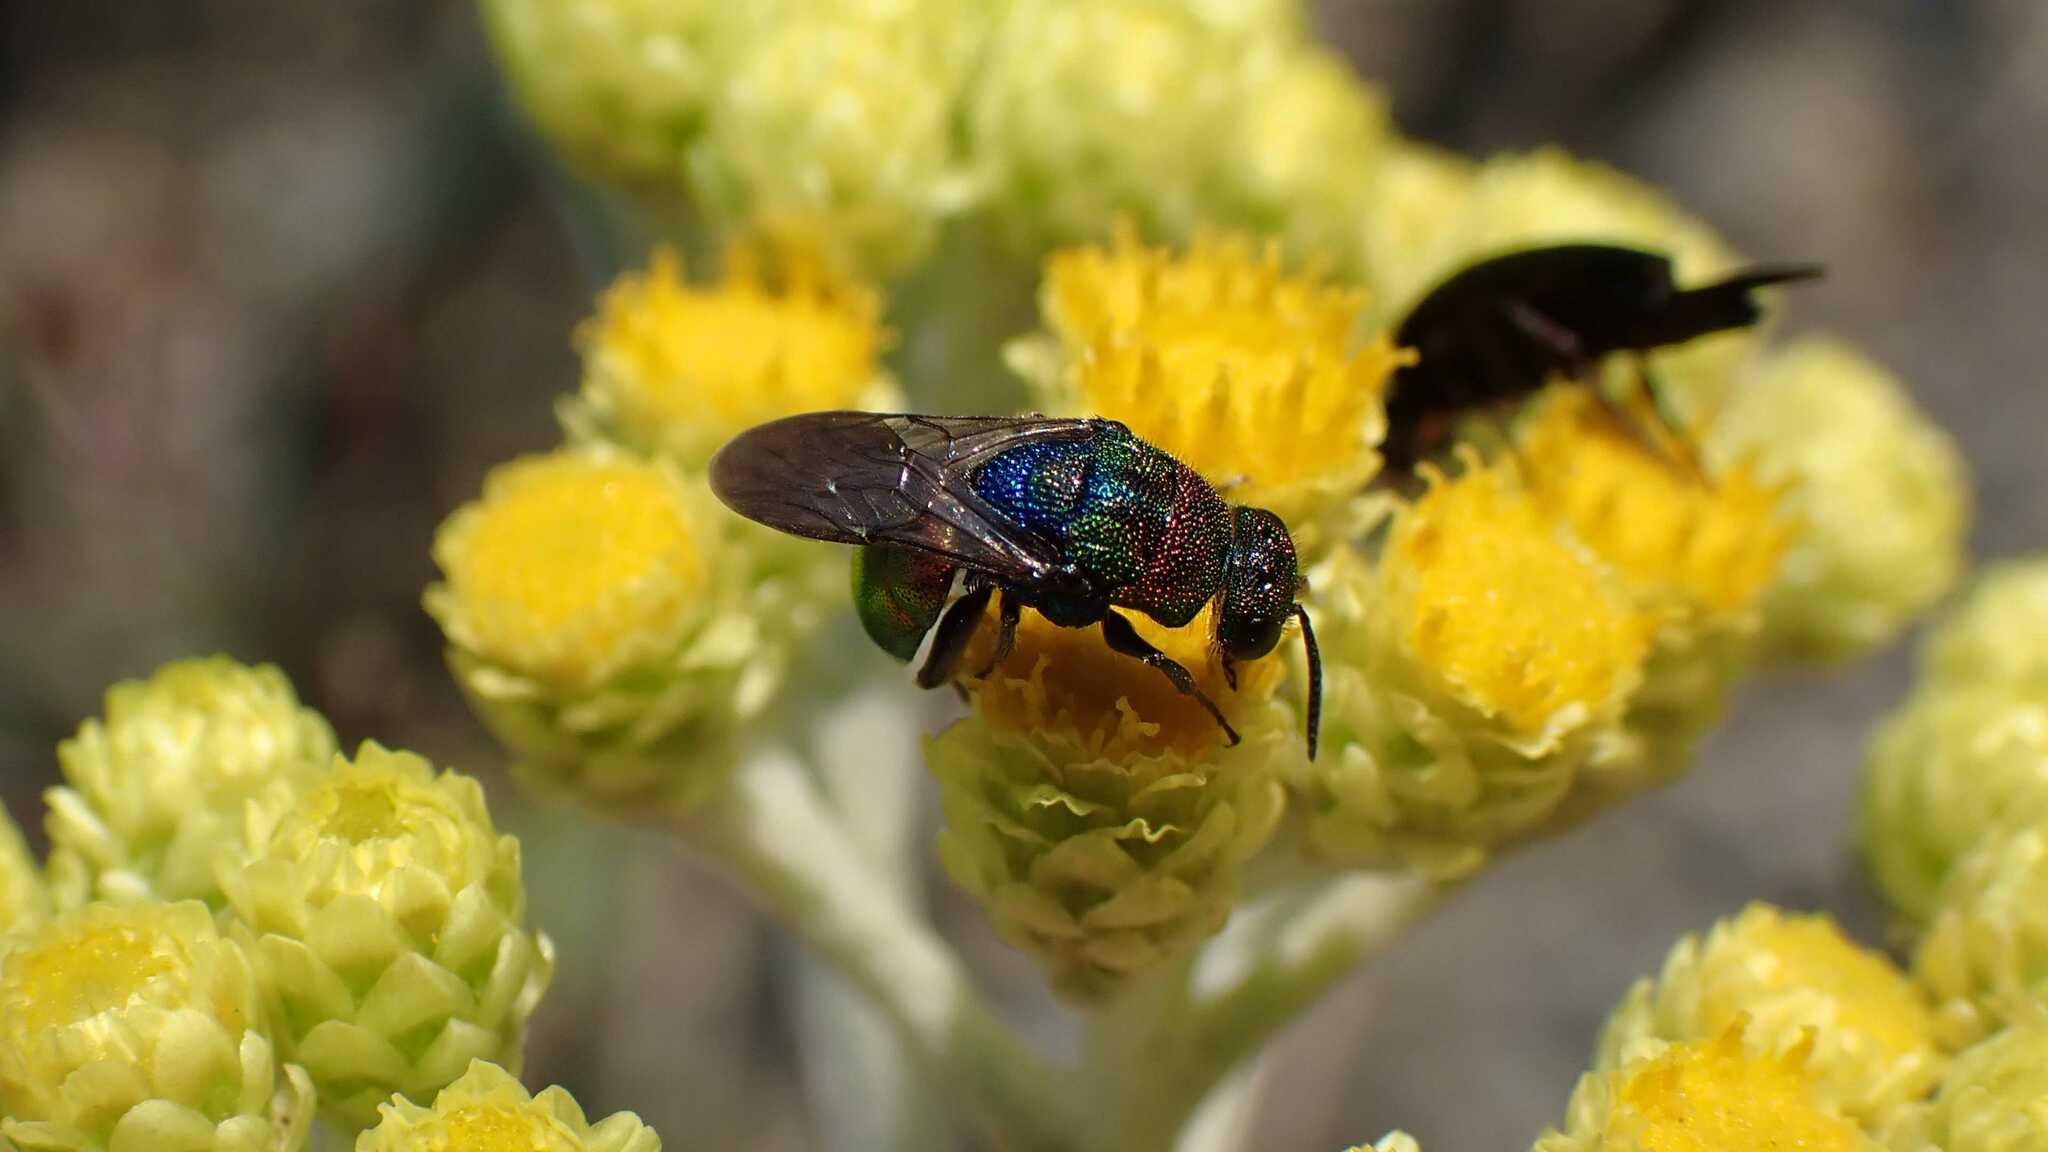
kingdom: Animalia
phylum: Arthropoda
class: Insecta
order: Hymenoptera
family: Chrysididae
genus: Hedychrum
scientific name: Hedychrum rutilans
